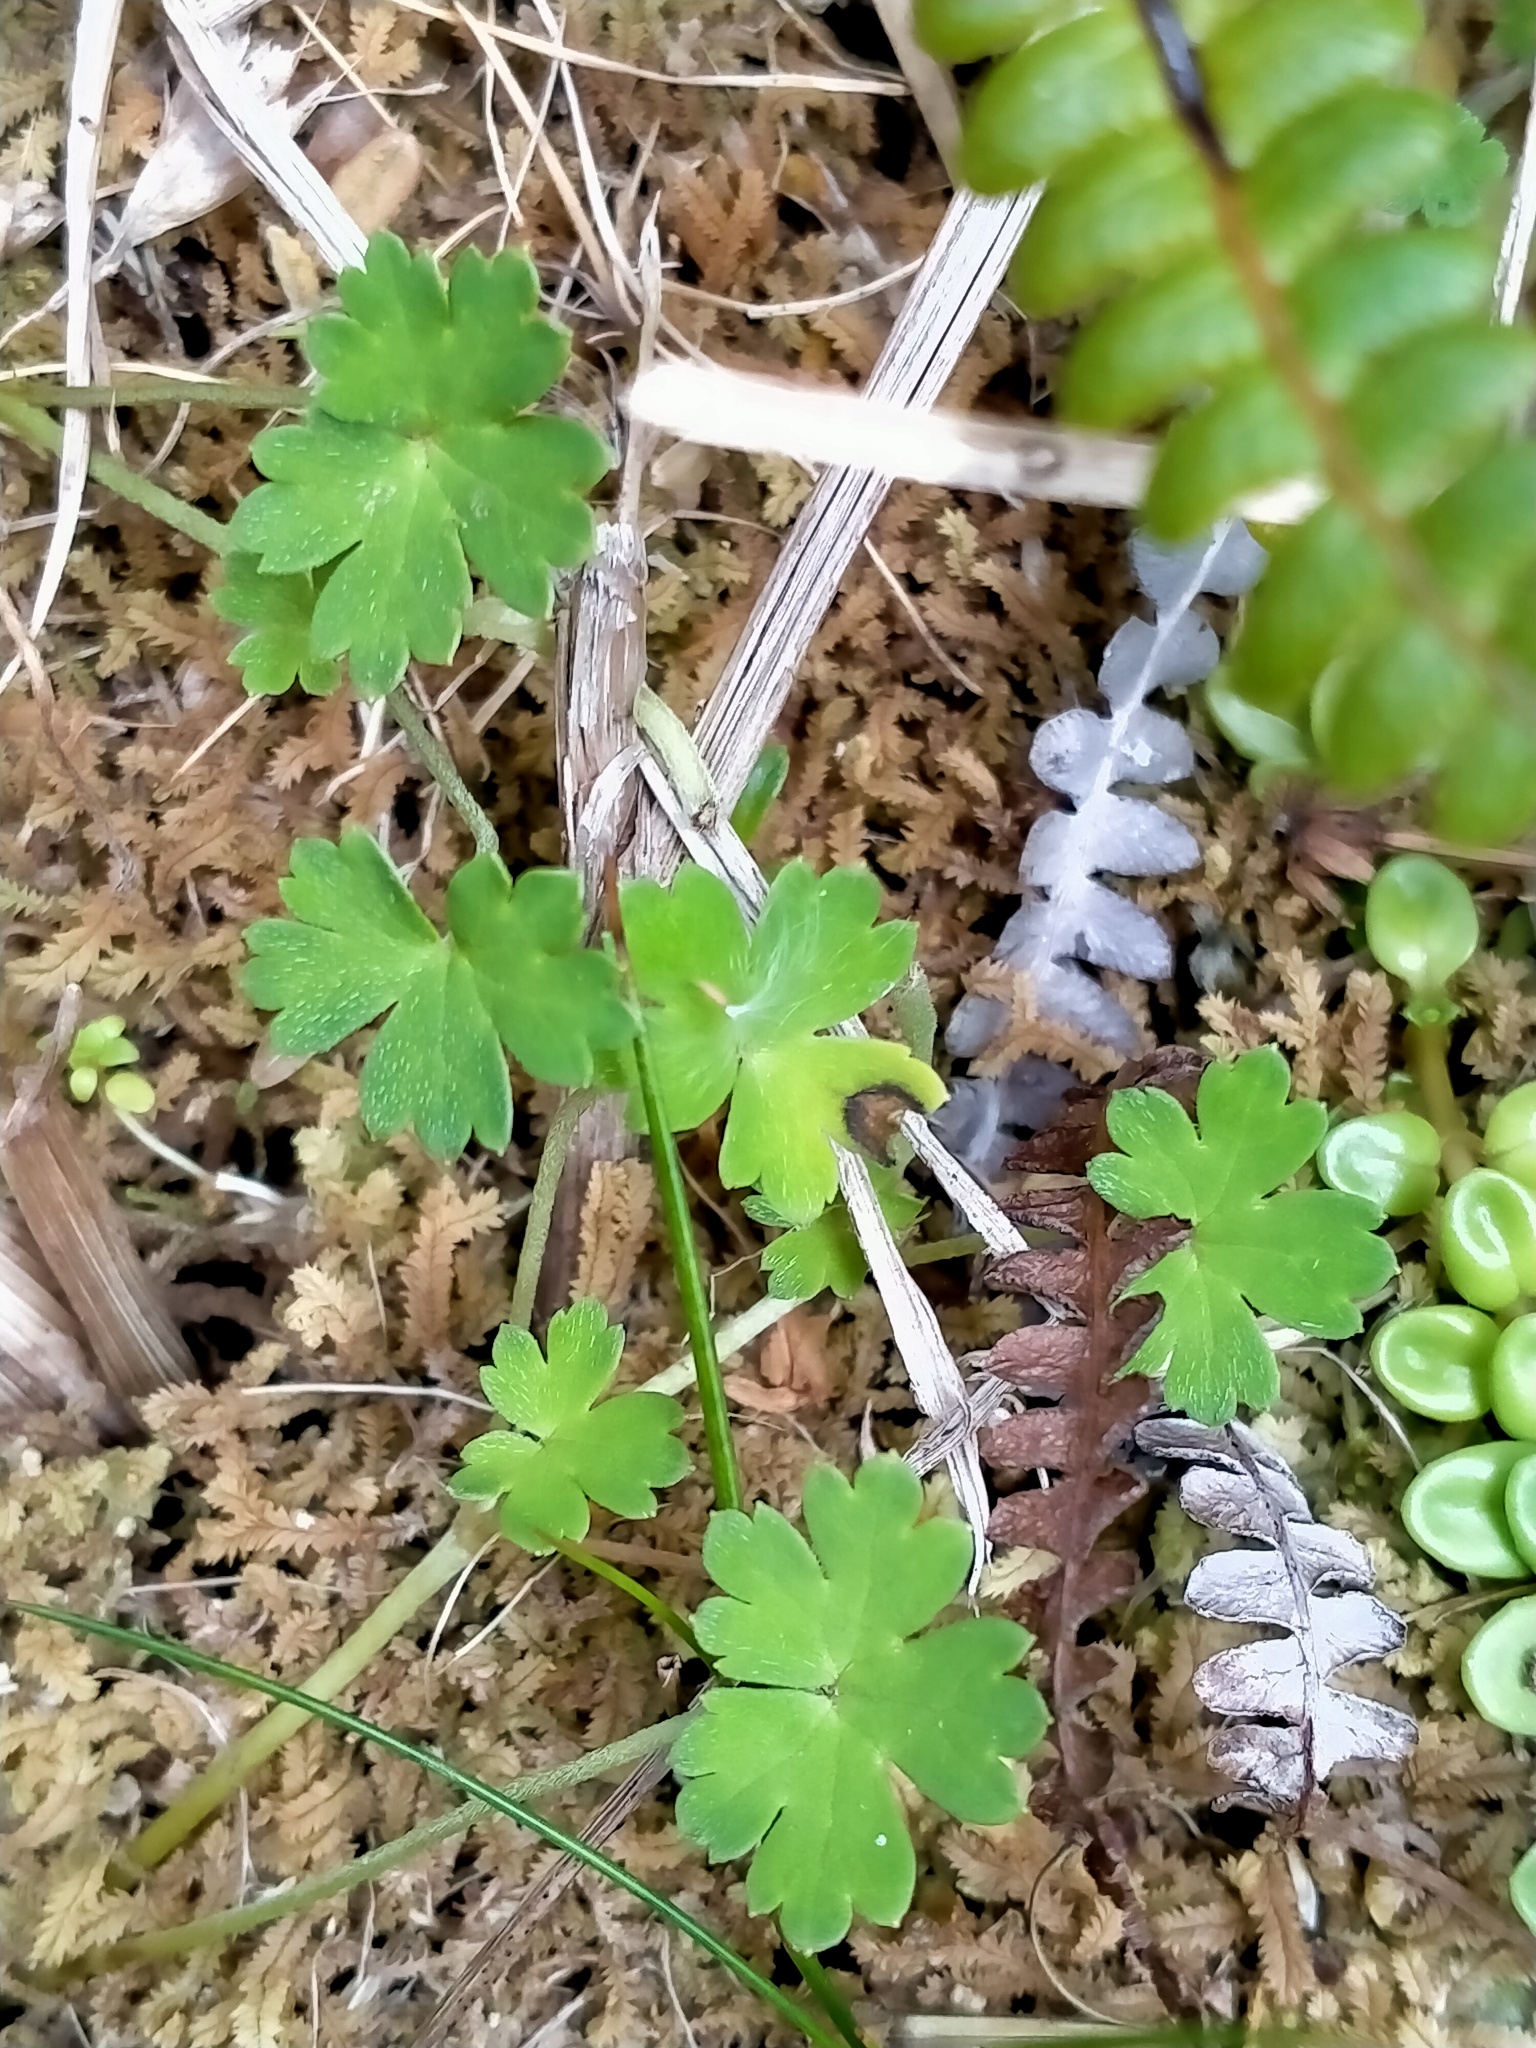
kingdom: Plantae
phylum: Tracheophyta
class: Magnoliopsida
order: Geraniales
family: Geraniaceae
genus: Geranium
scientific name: Geranium
